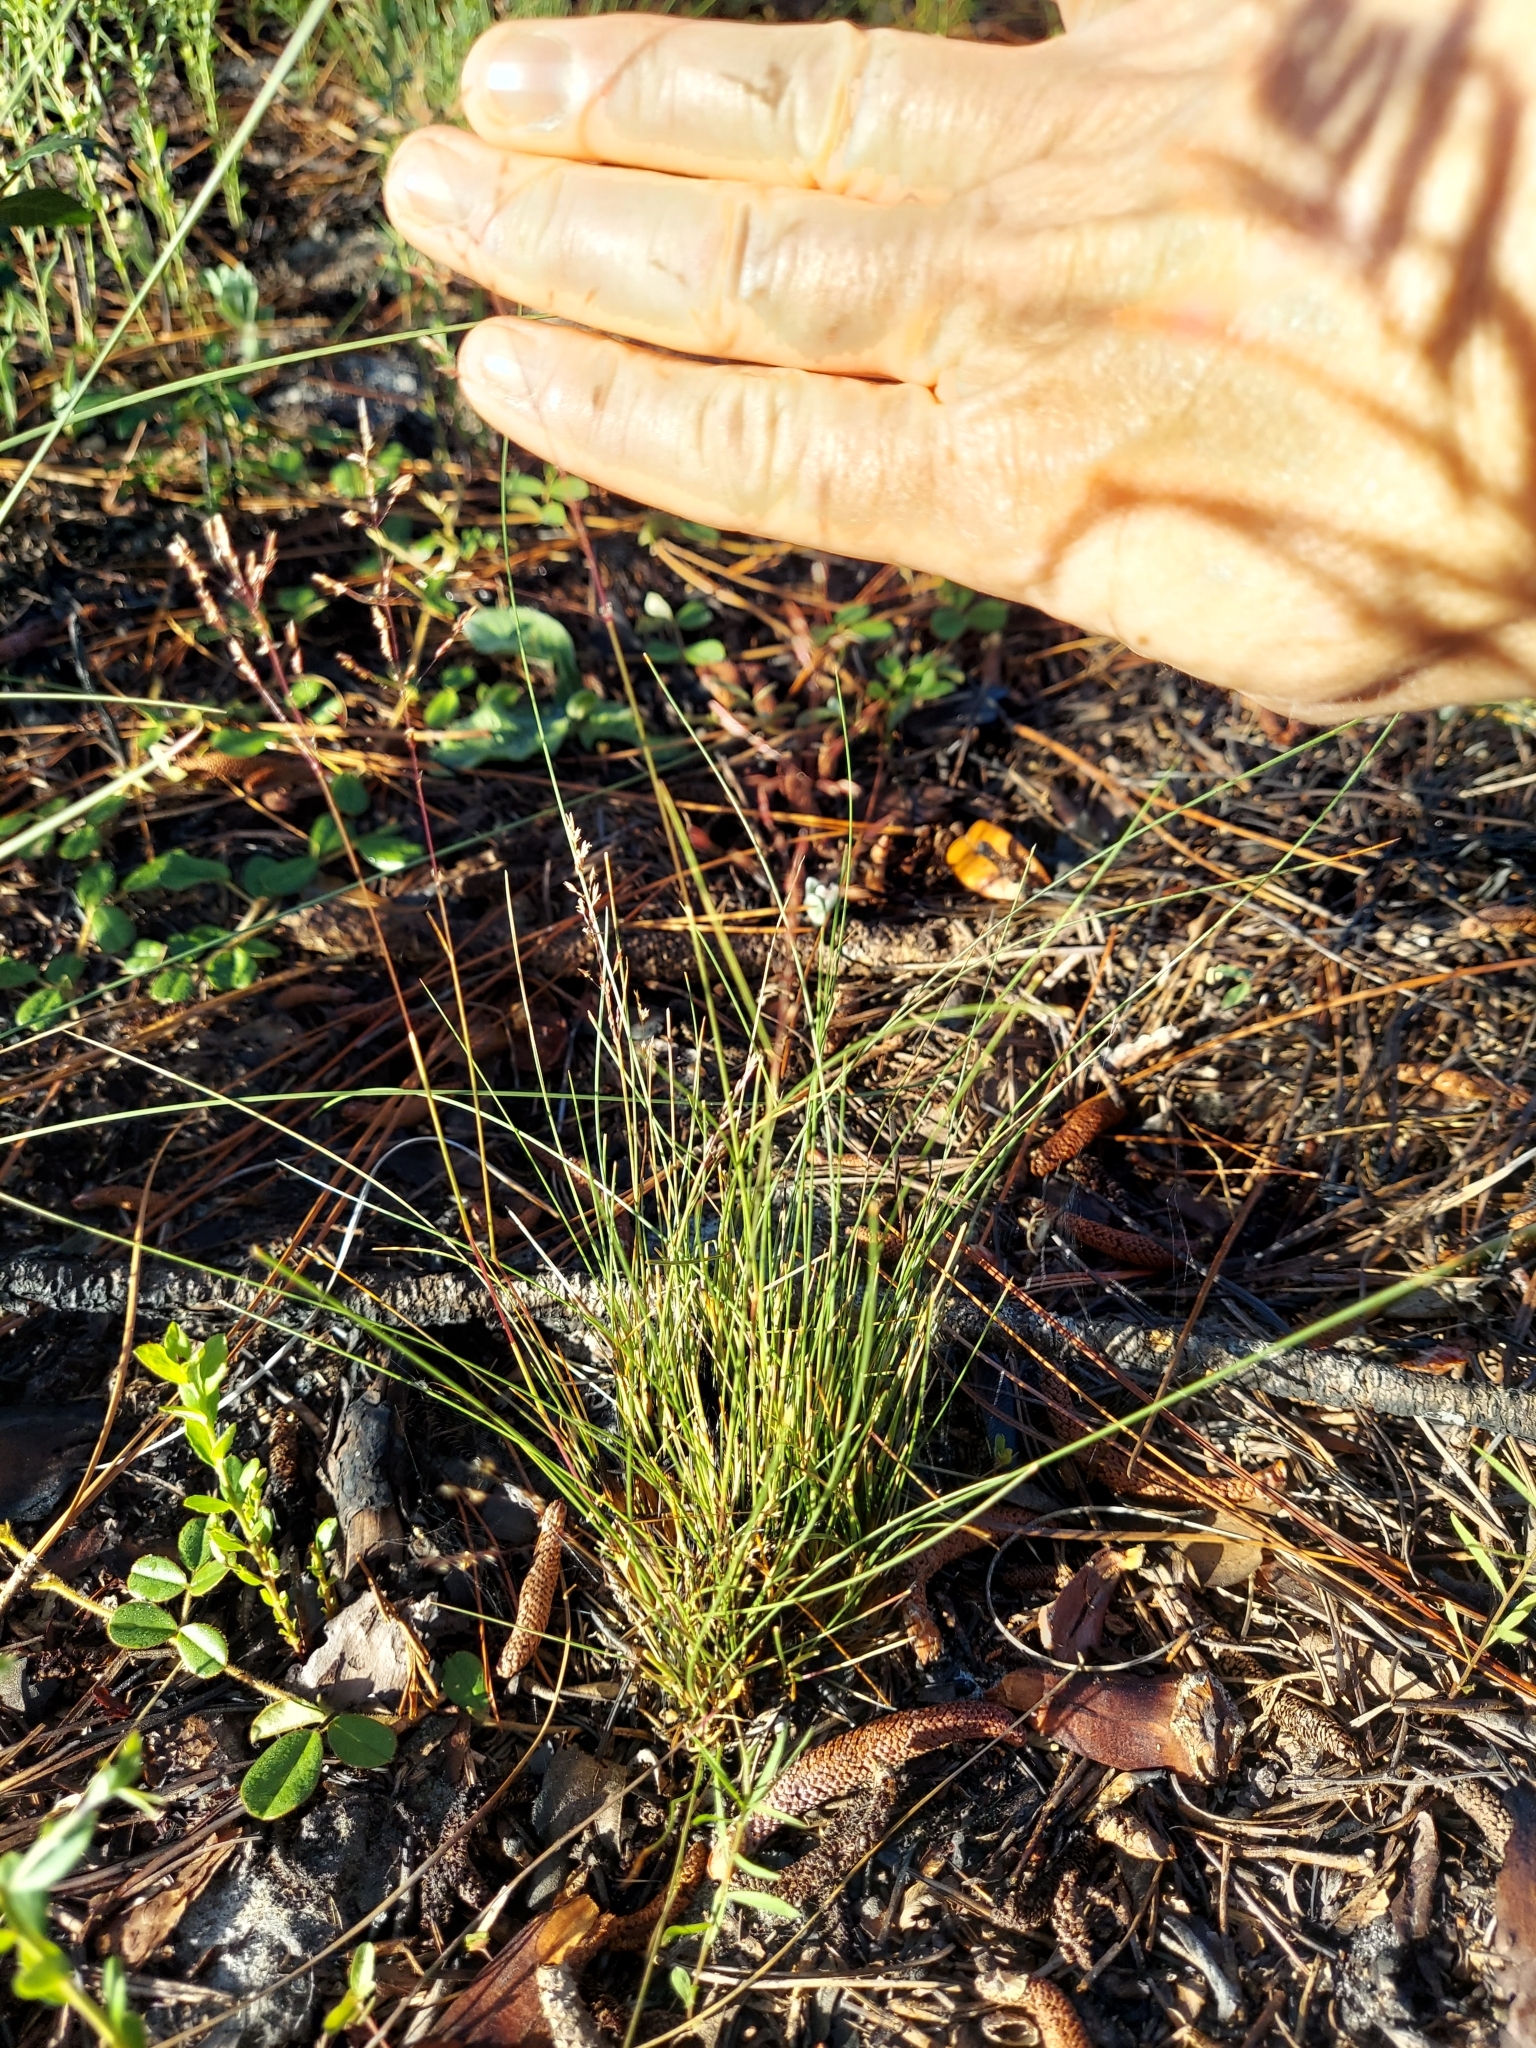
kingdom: Plantae
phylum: Tracheophyta
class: Liliopsida
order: Poales
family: Poaceae
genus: Sporobolus
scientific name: Sporobolus junceus
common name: Lizard grass
